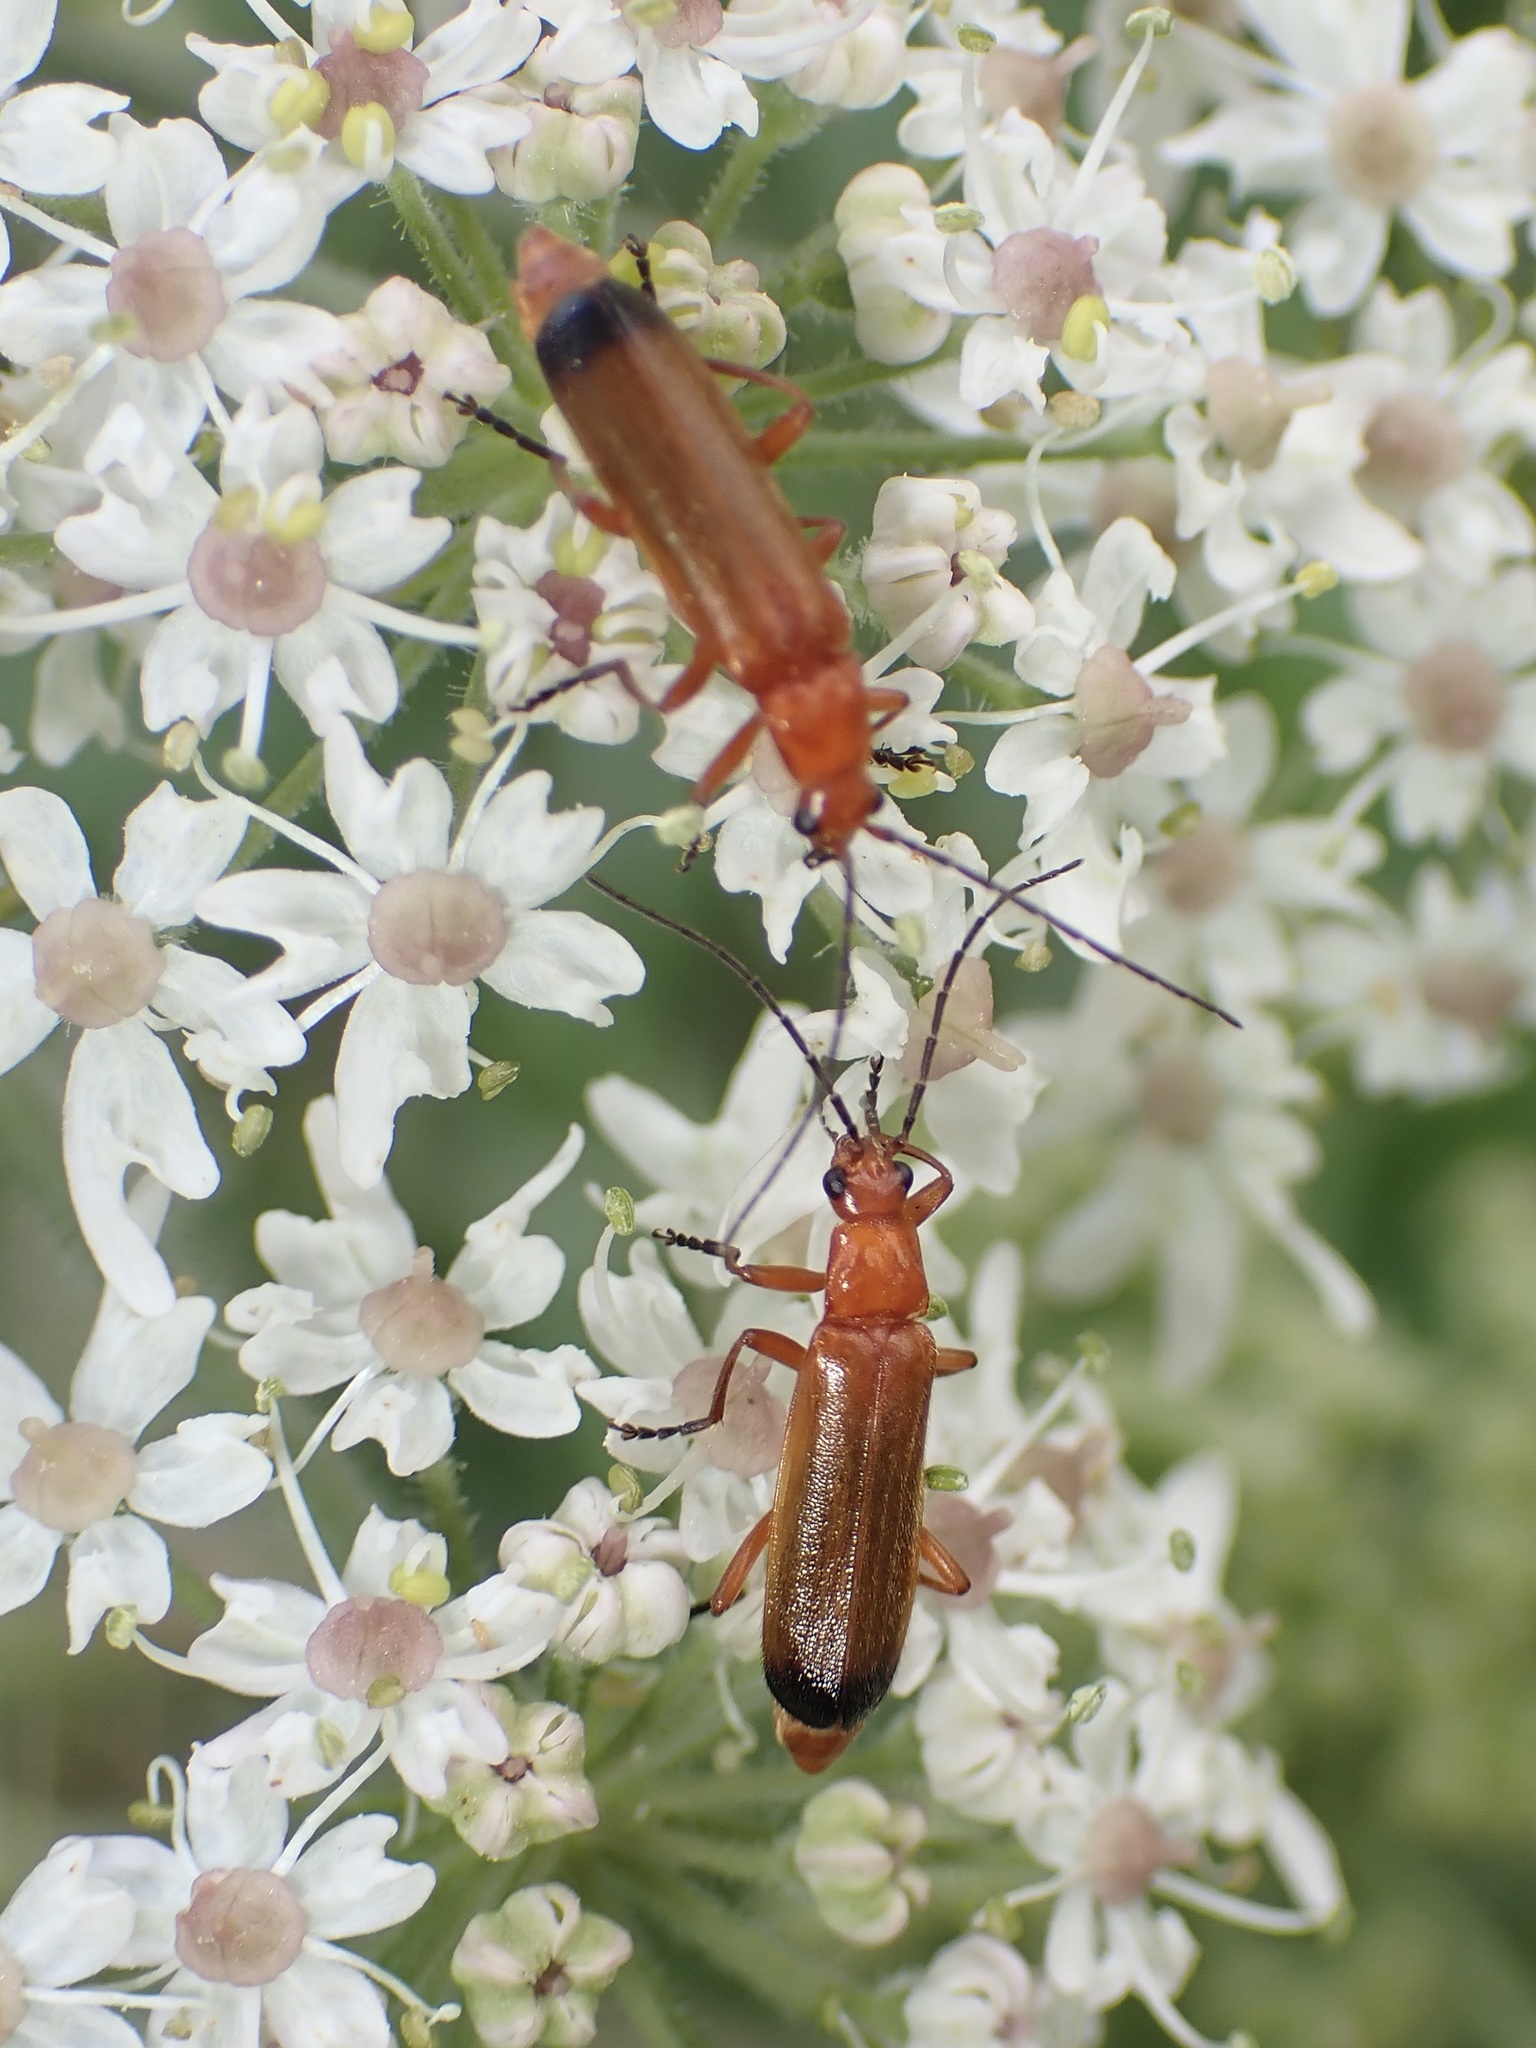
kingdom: Animalia
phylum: Arthropoda
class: Insecta
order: Coleoptera
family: Cantharidae
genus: Rhagonycha
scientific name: Rhagonycha fulva
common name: Common red soldier beetle
